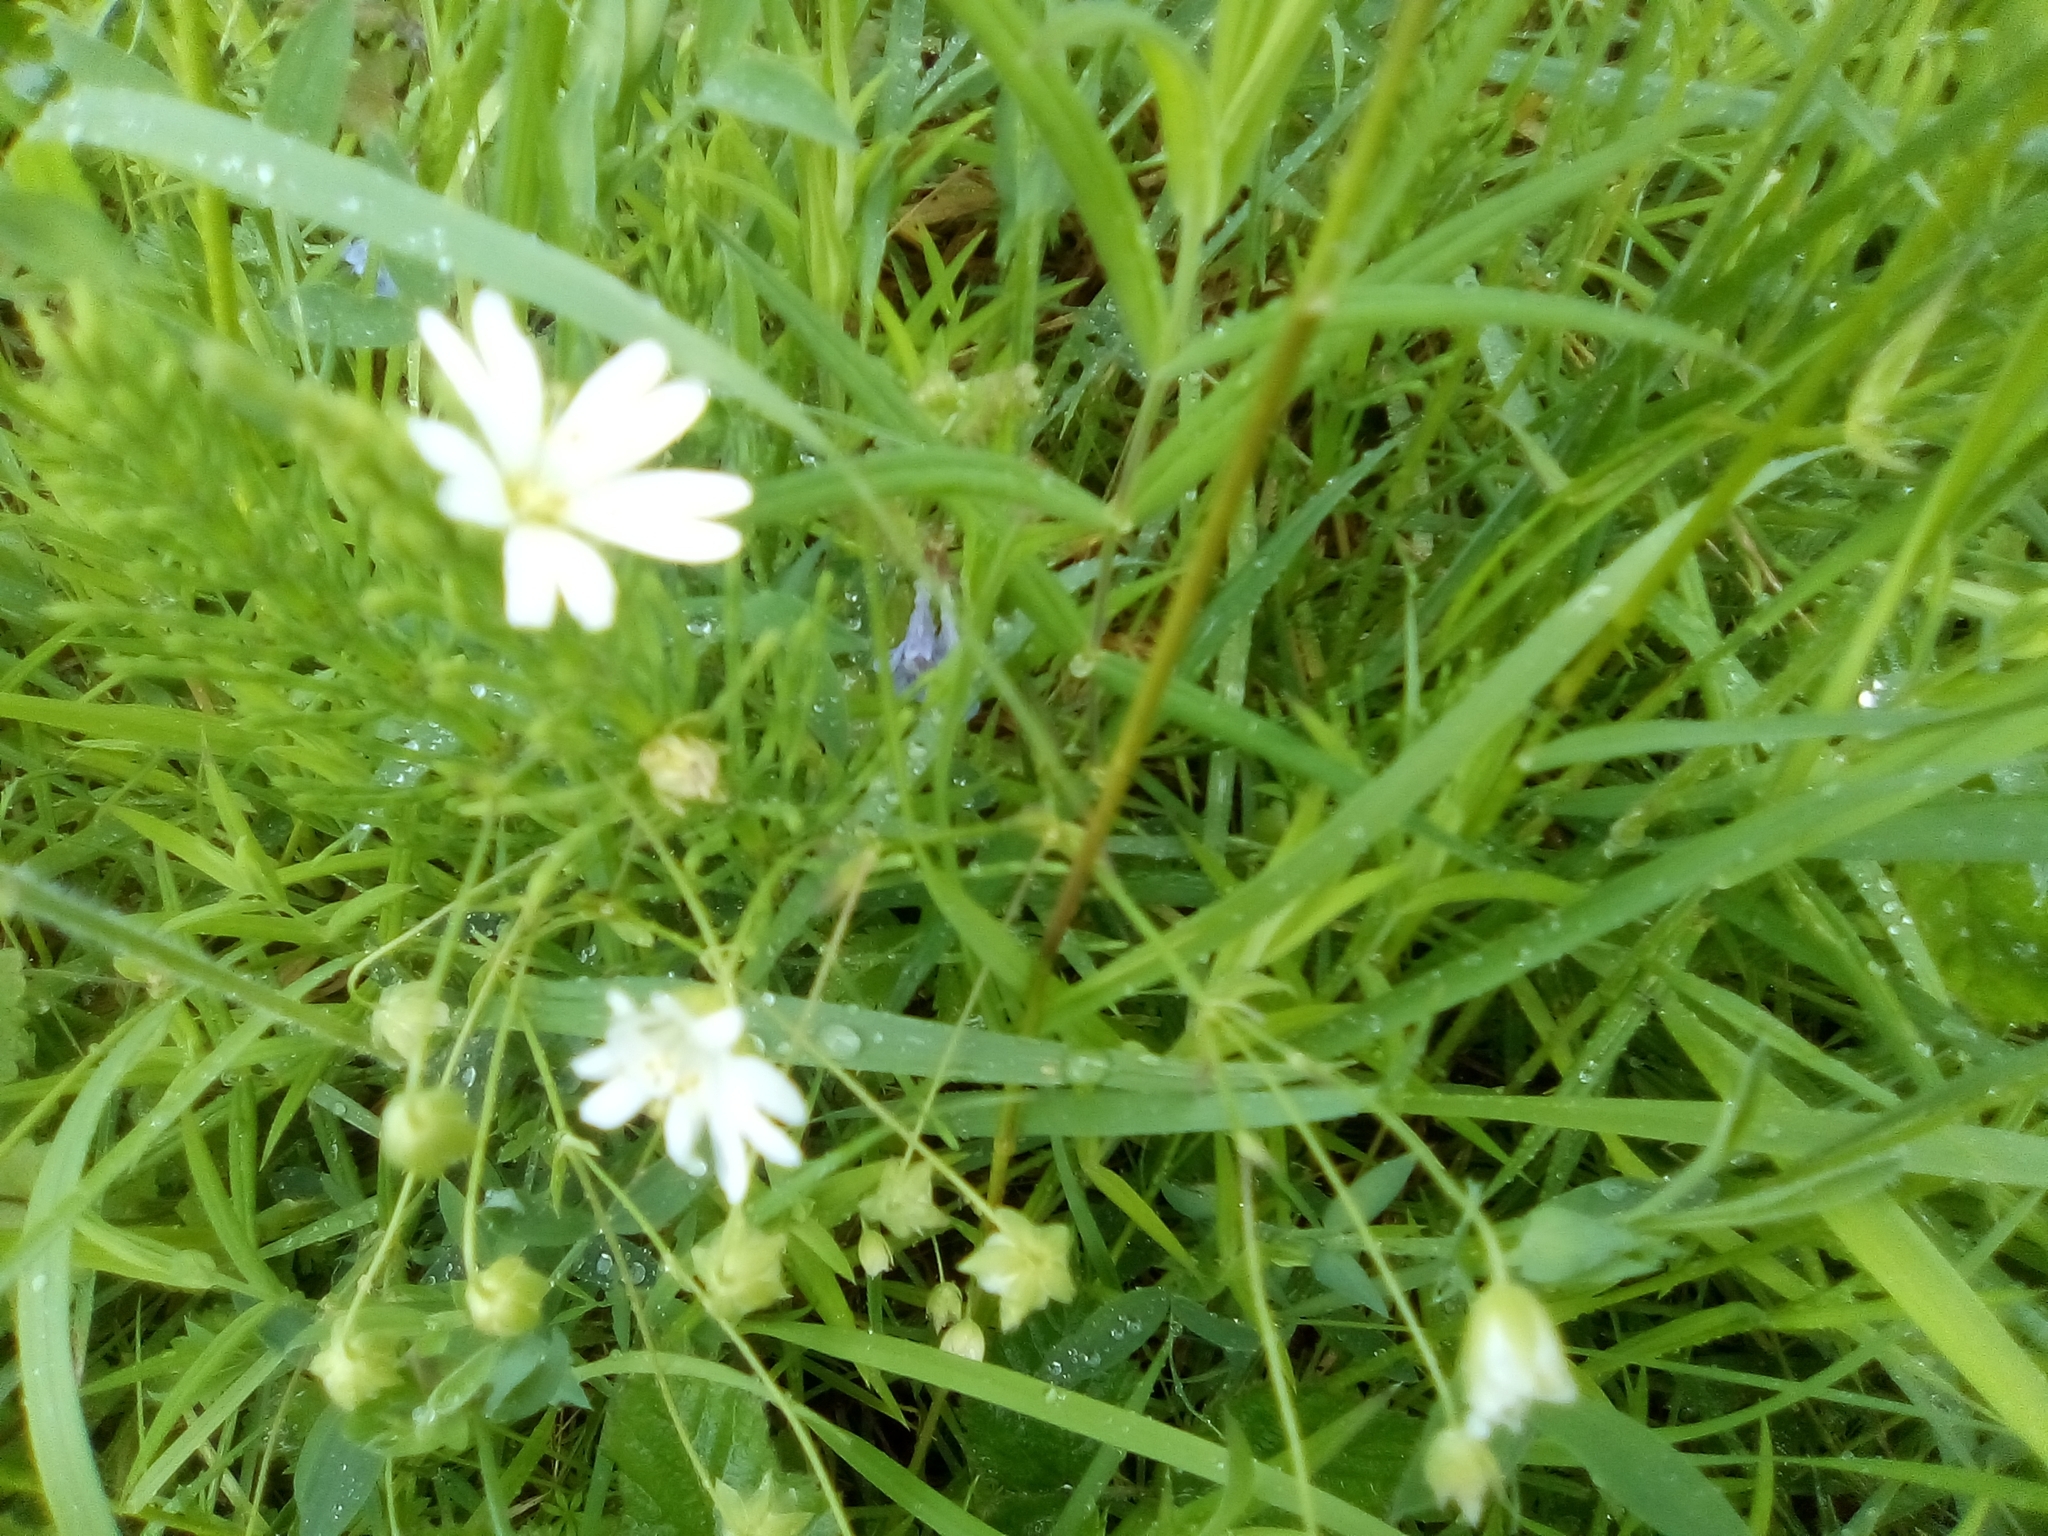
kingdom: Plantae
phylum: Tracheophyta
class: Magnoliopsida
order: Caryophyllales
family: Caryophyllaceae
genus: Rabelera
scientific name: Rabelera holostea
